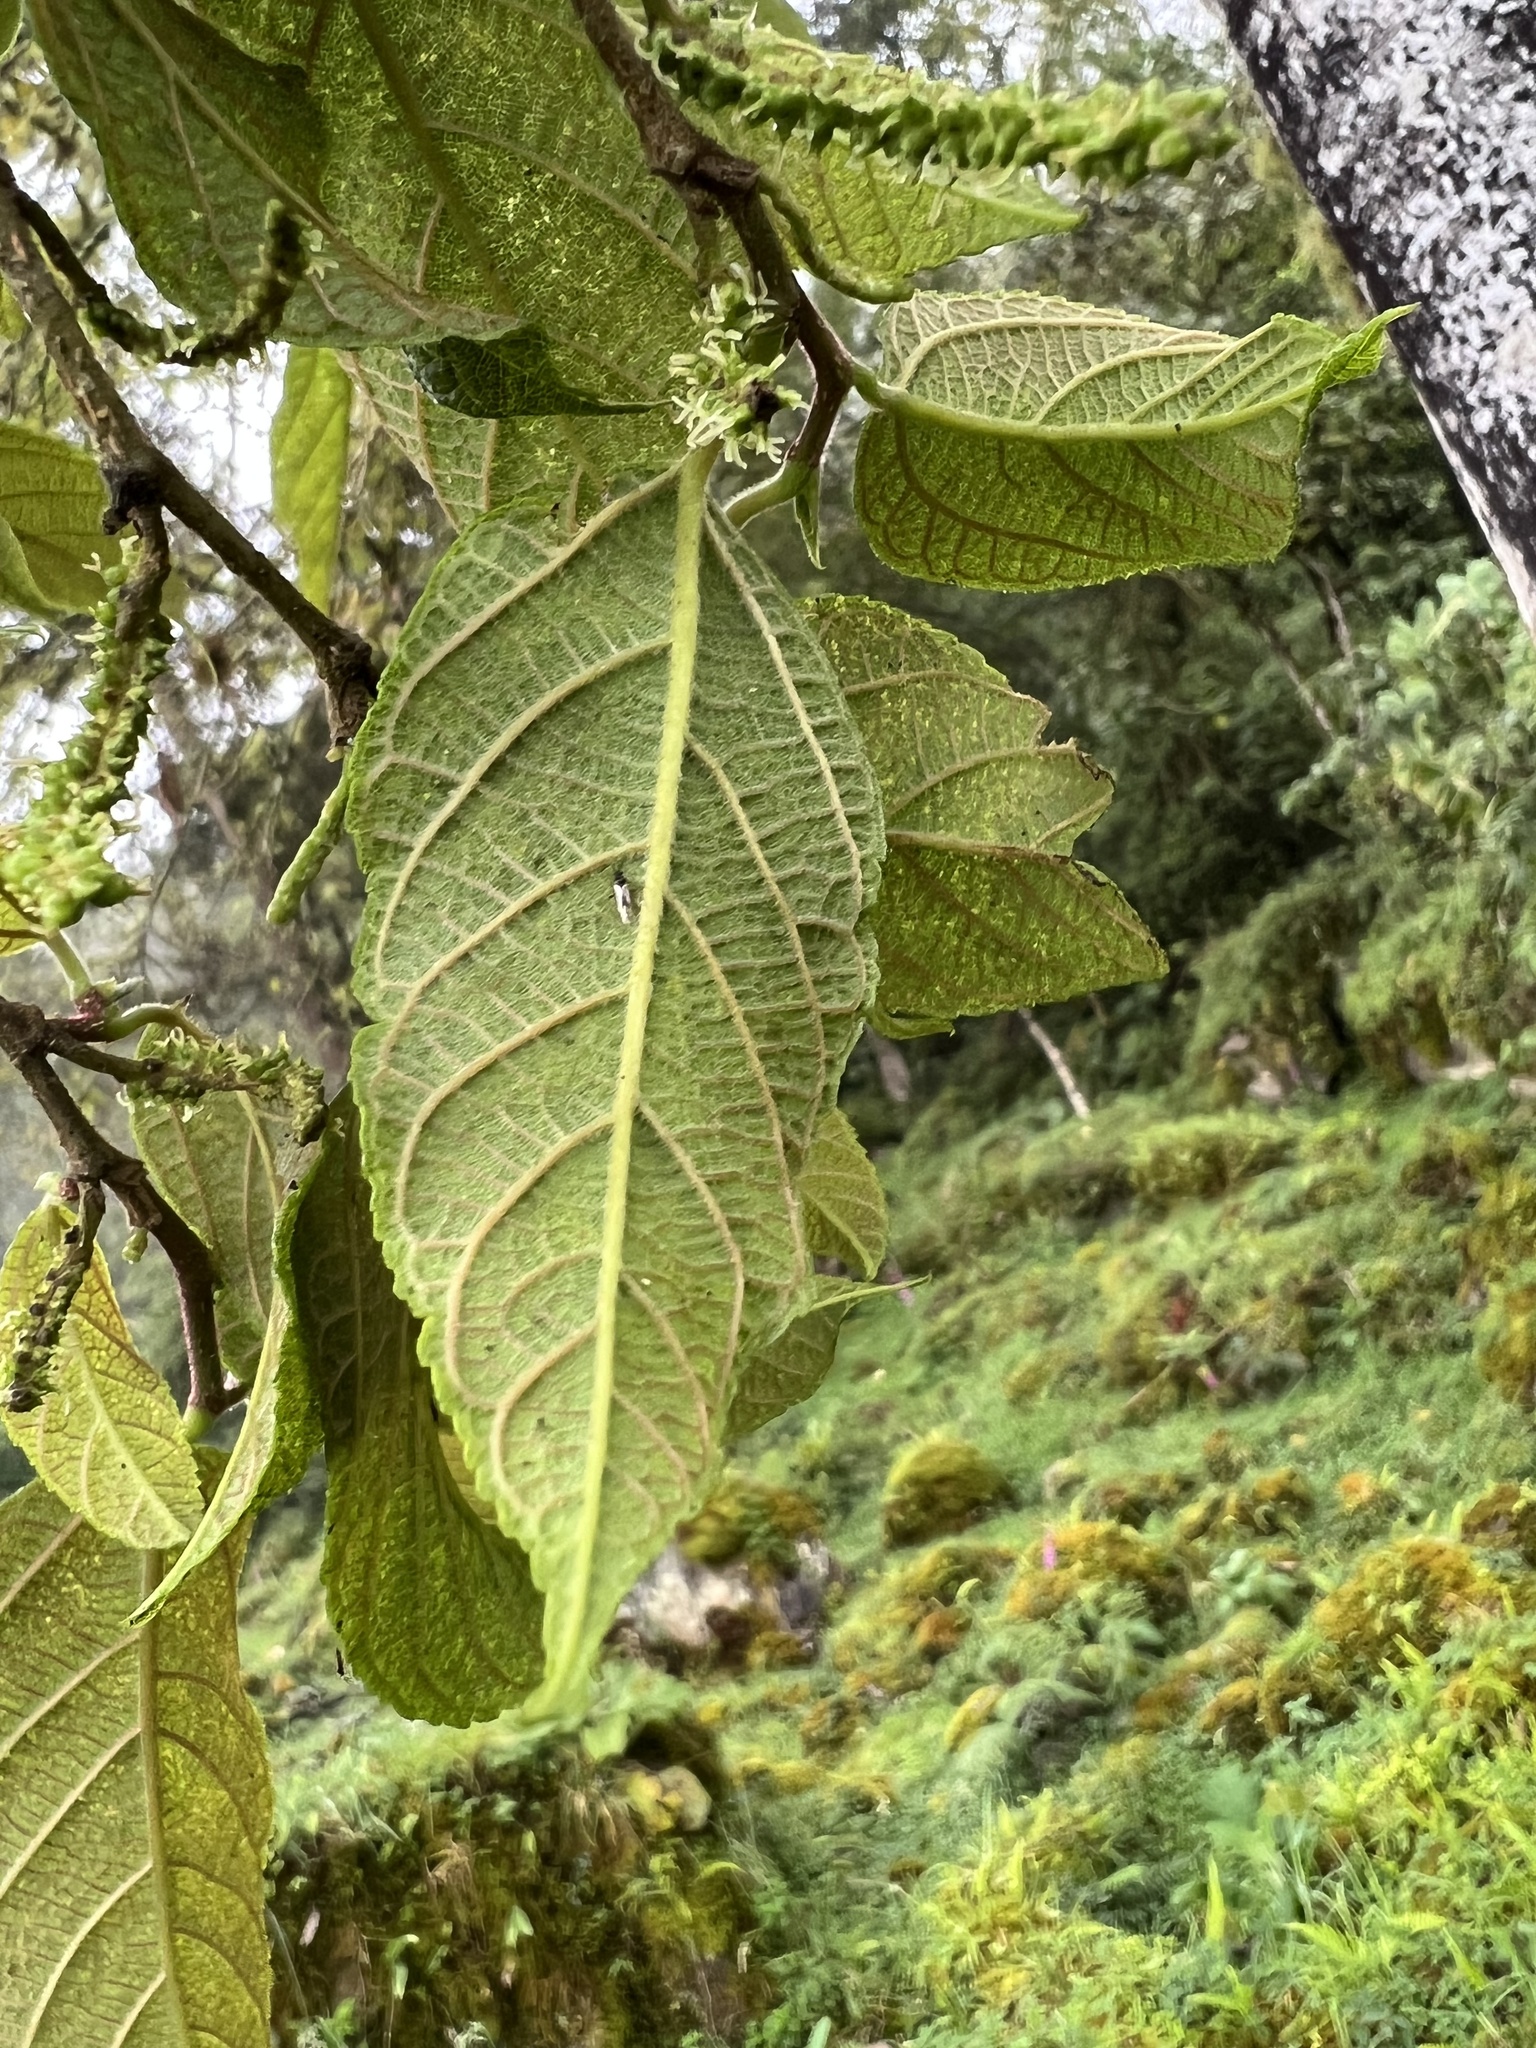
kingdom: Plantae
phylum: Tracheophyta
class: Magnoliopsida
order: Rosales
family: Moraceae
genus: Paratrophis
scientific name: Paratrophis insignis
